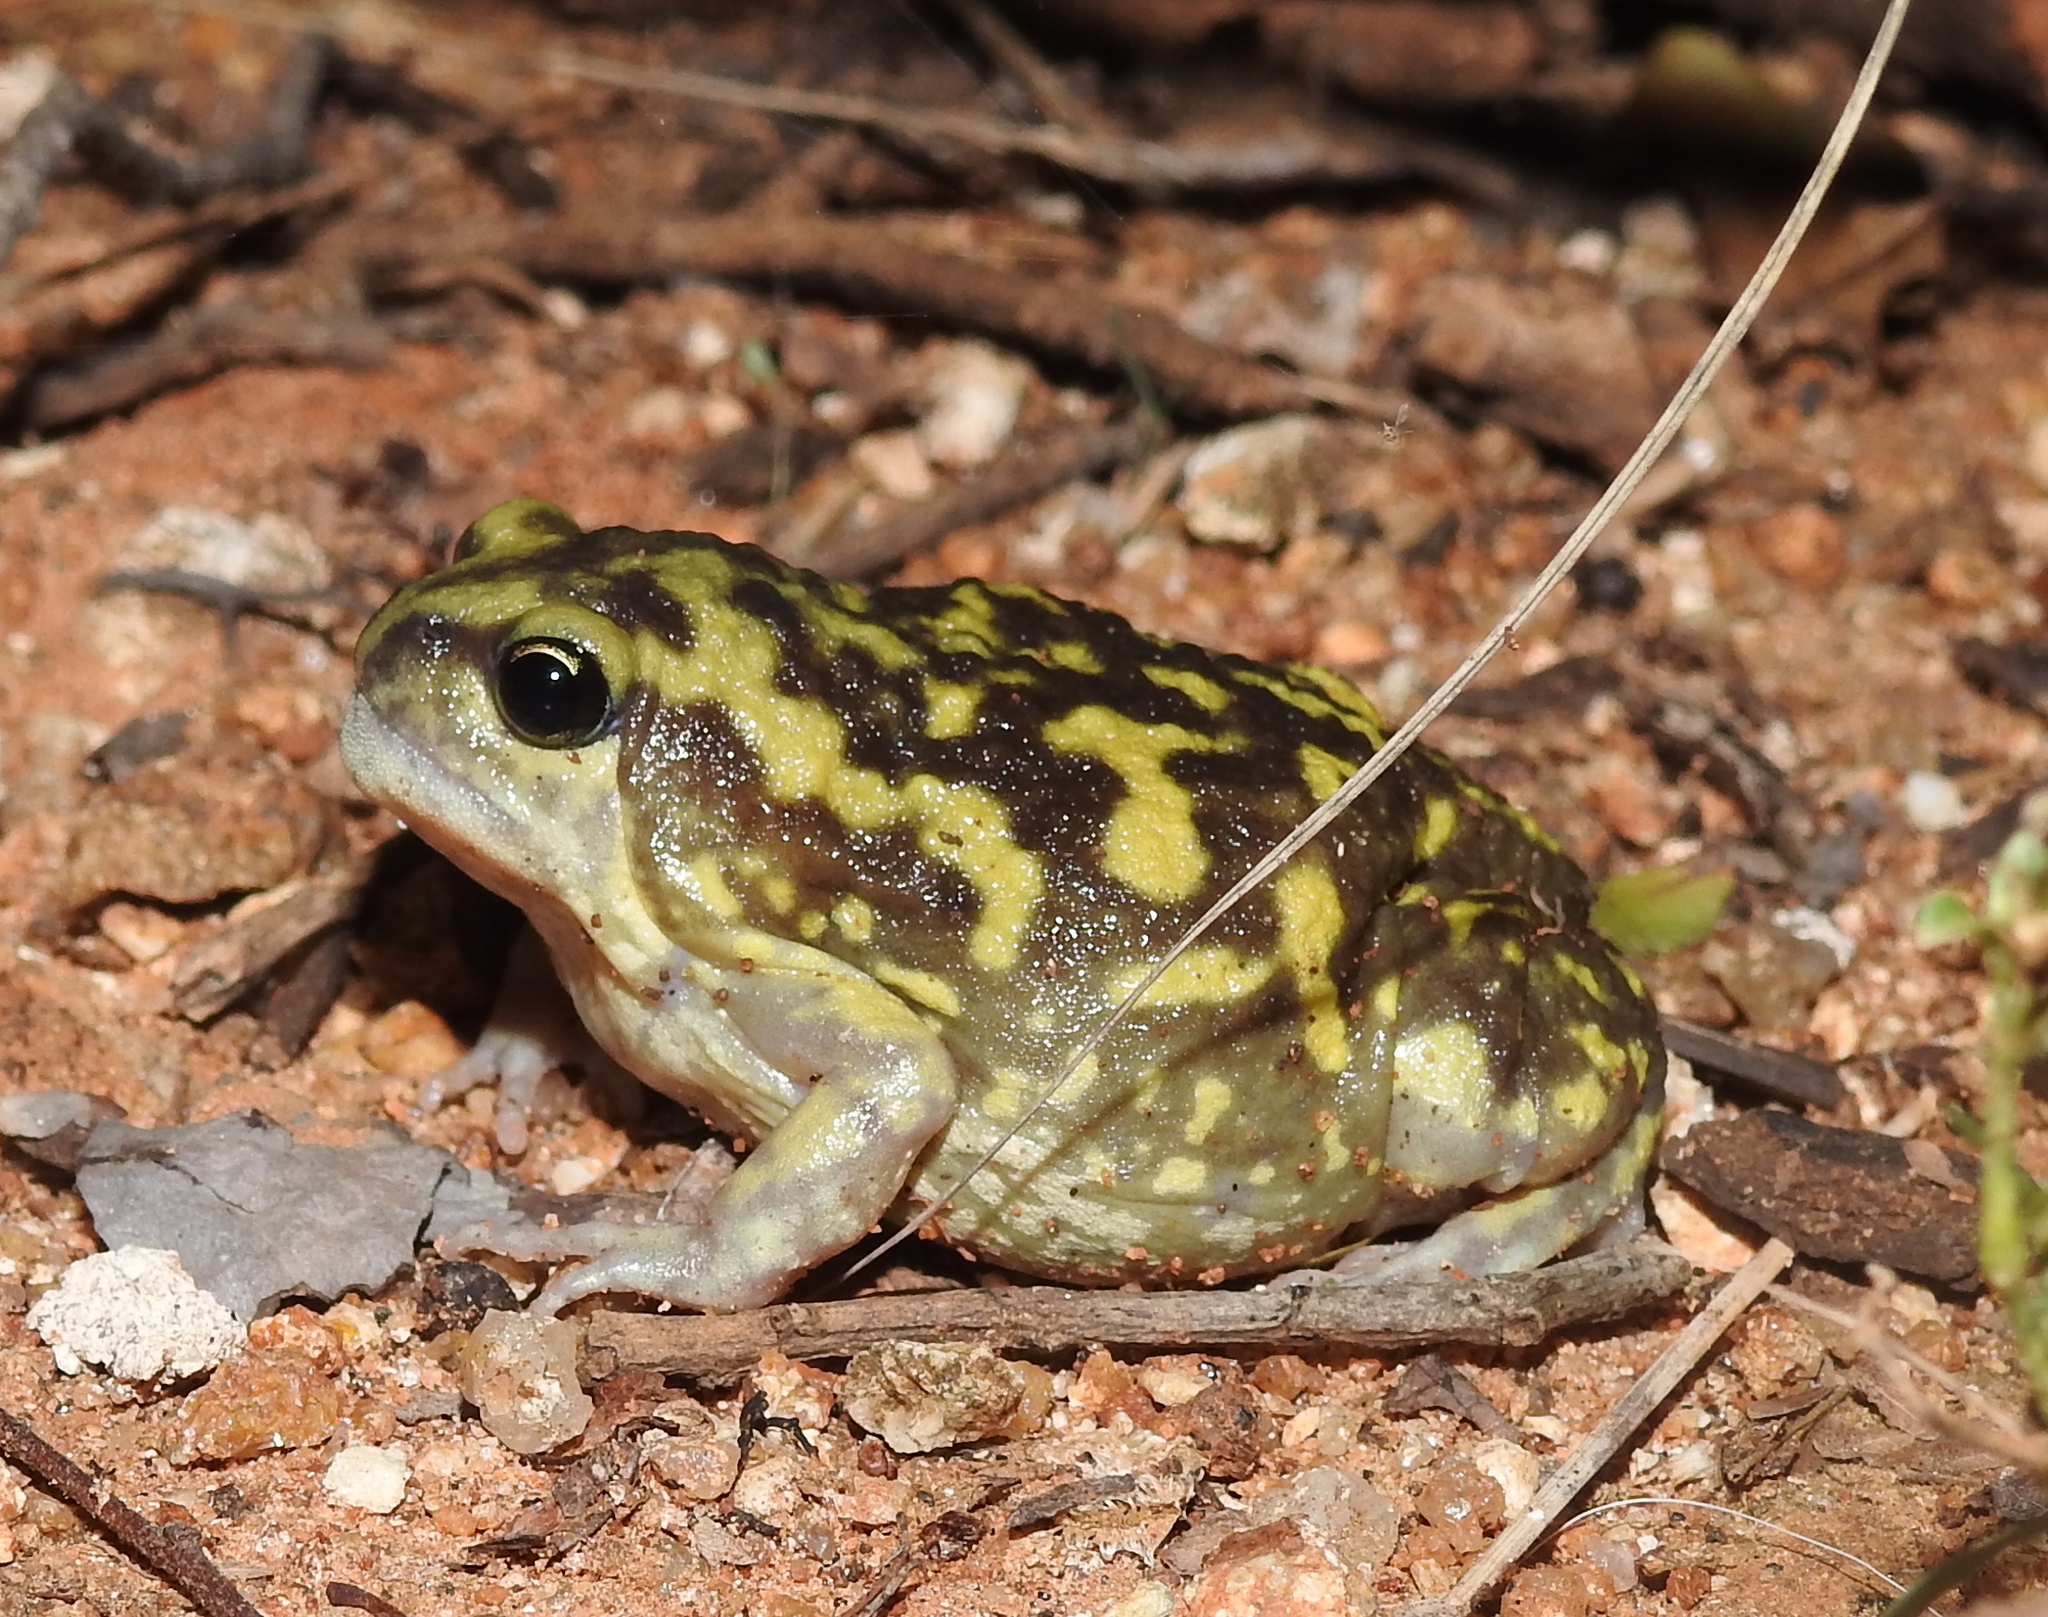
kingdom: Animalia
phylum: Chordata
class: Amphibia
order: Anura
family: Microhylidae
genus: Uperodon
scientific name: Uperodon systoma
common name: Balloon frog
